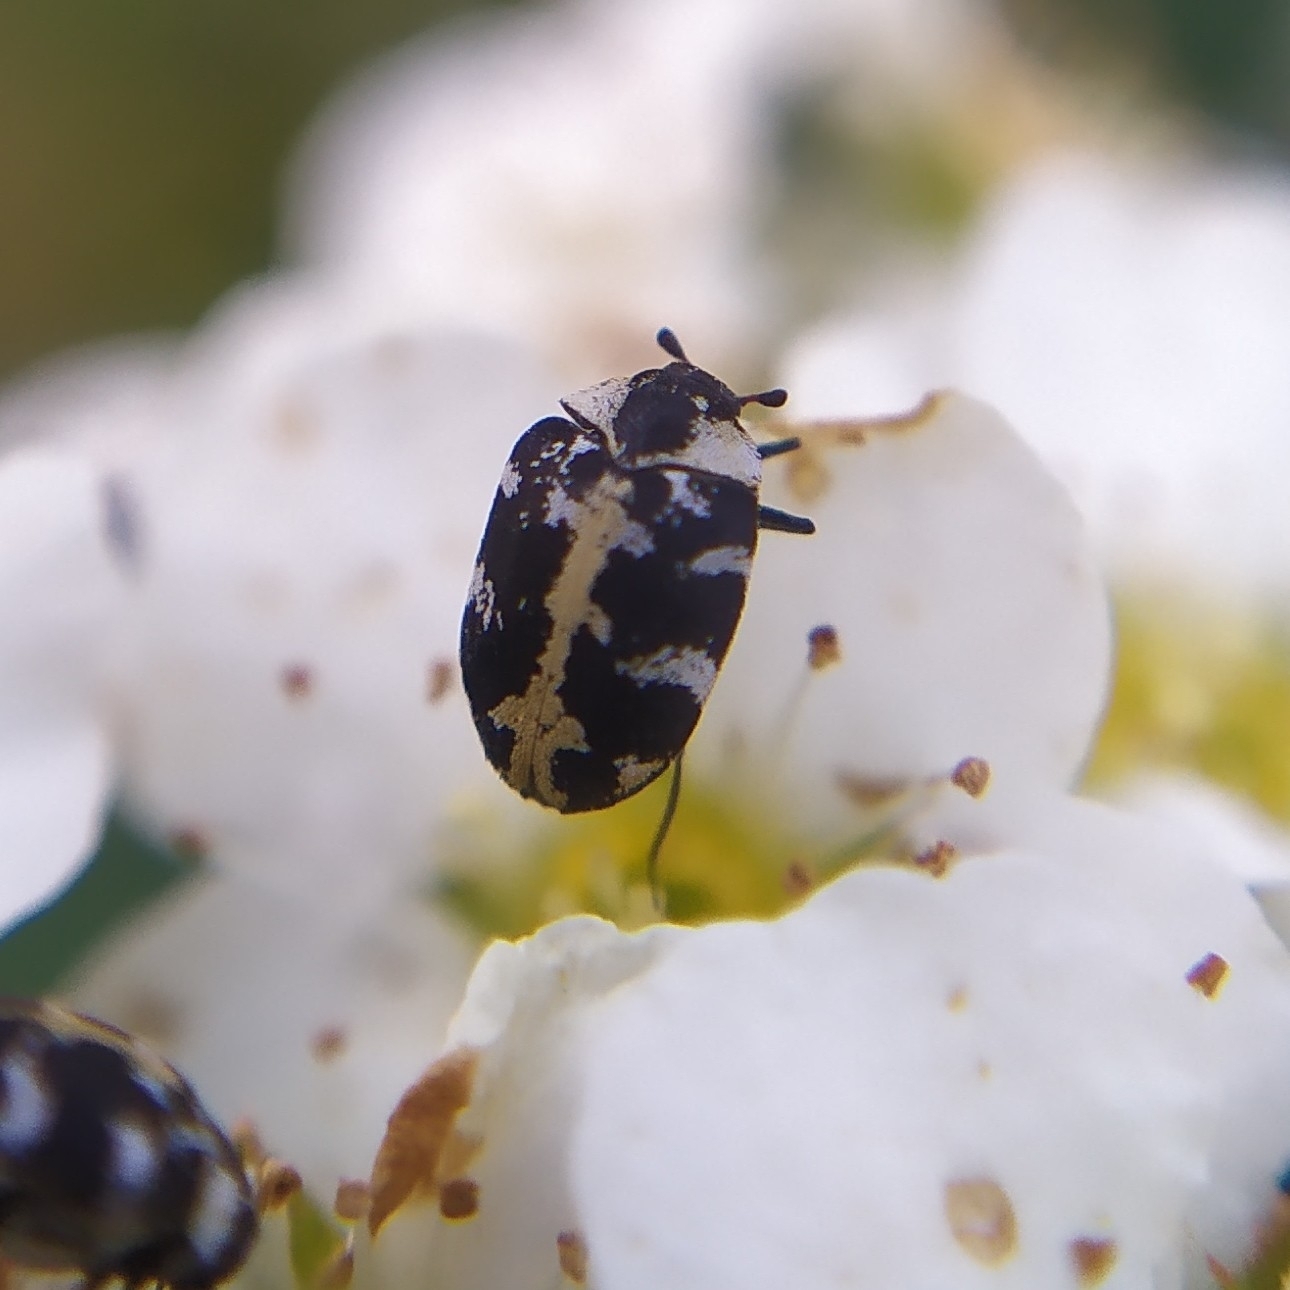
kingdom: Animalia
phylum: Arthropoda
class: Insecta
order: Coleoptera
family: Dermestidae
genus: Anthrenus
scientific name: Anthrenus scrophulariae
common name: Buffalo carpet beetle
